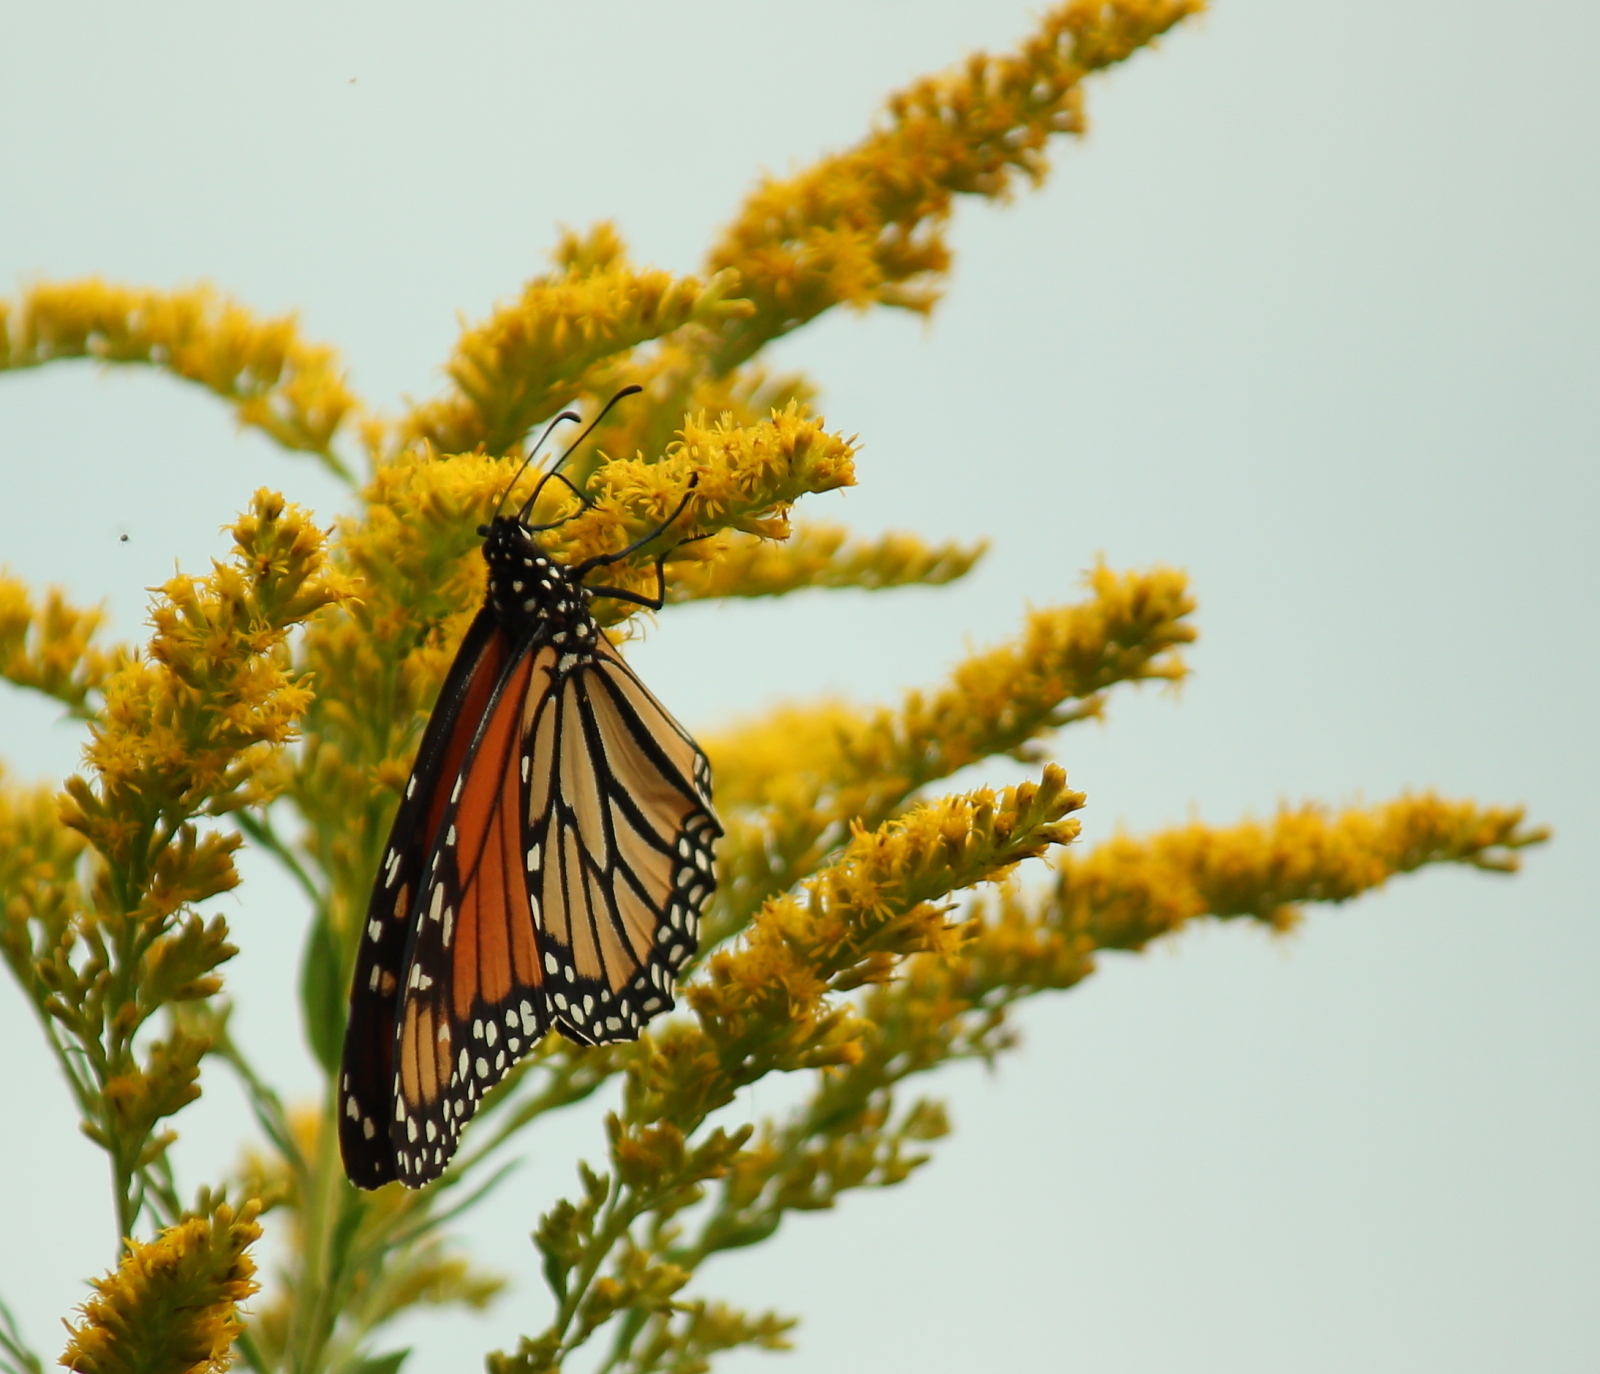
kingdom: Animalia
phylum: Arthropoda
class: Insecta
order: Lepidoptera
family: Nymphalidae
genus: Danaus
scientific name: Danaus plexippus
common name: Monarch
